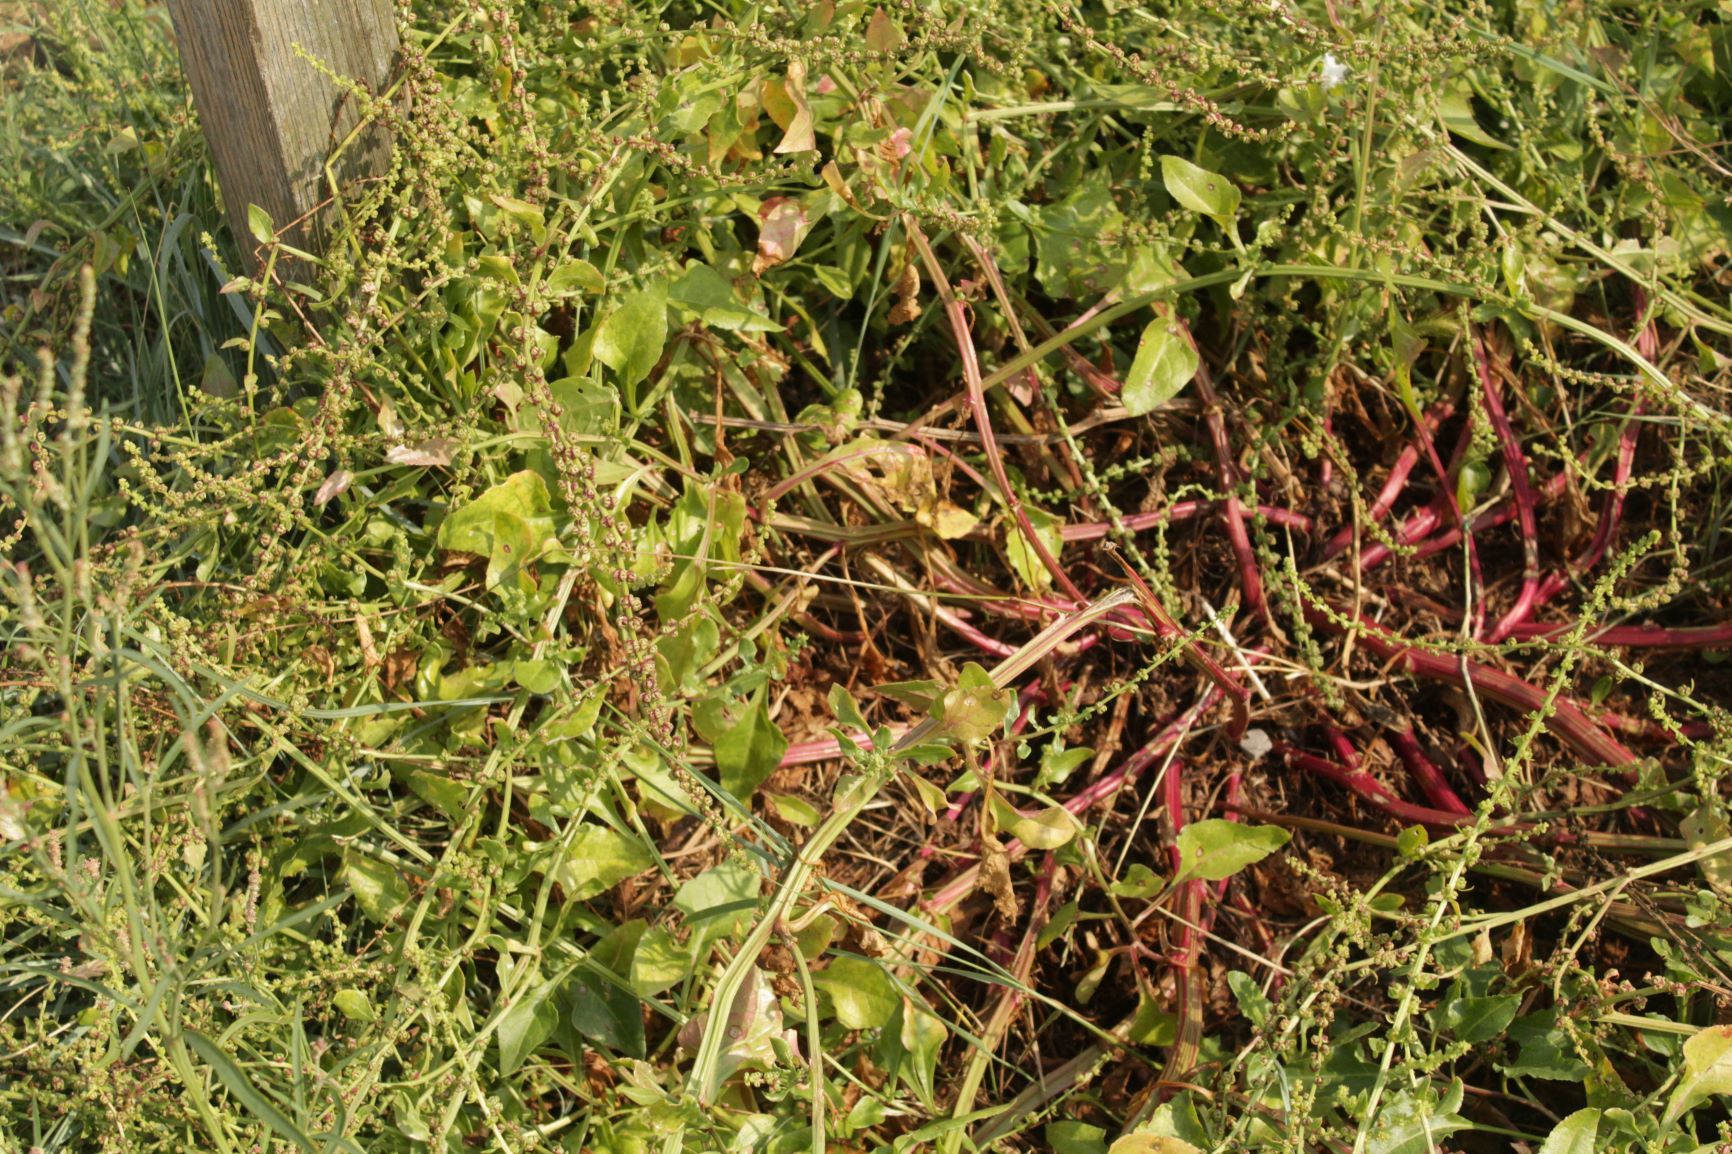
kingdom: Plantae
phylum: Tracheophyta
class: Magnoliopsida
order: Caryophyllales
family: Amaranthaceae
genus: Beta
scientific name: Beta vulgaris
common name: Beet
